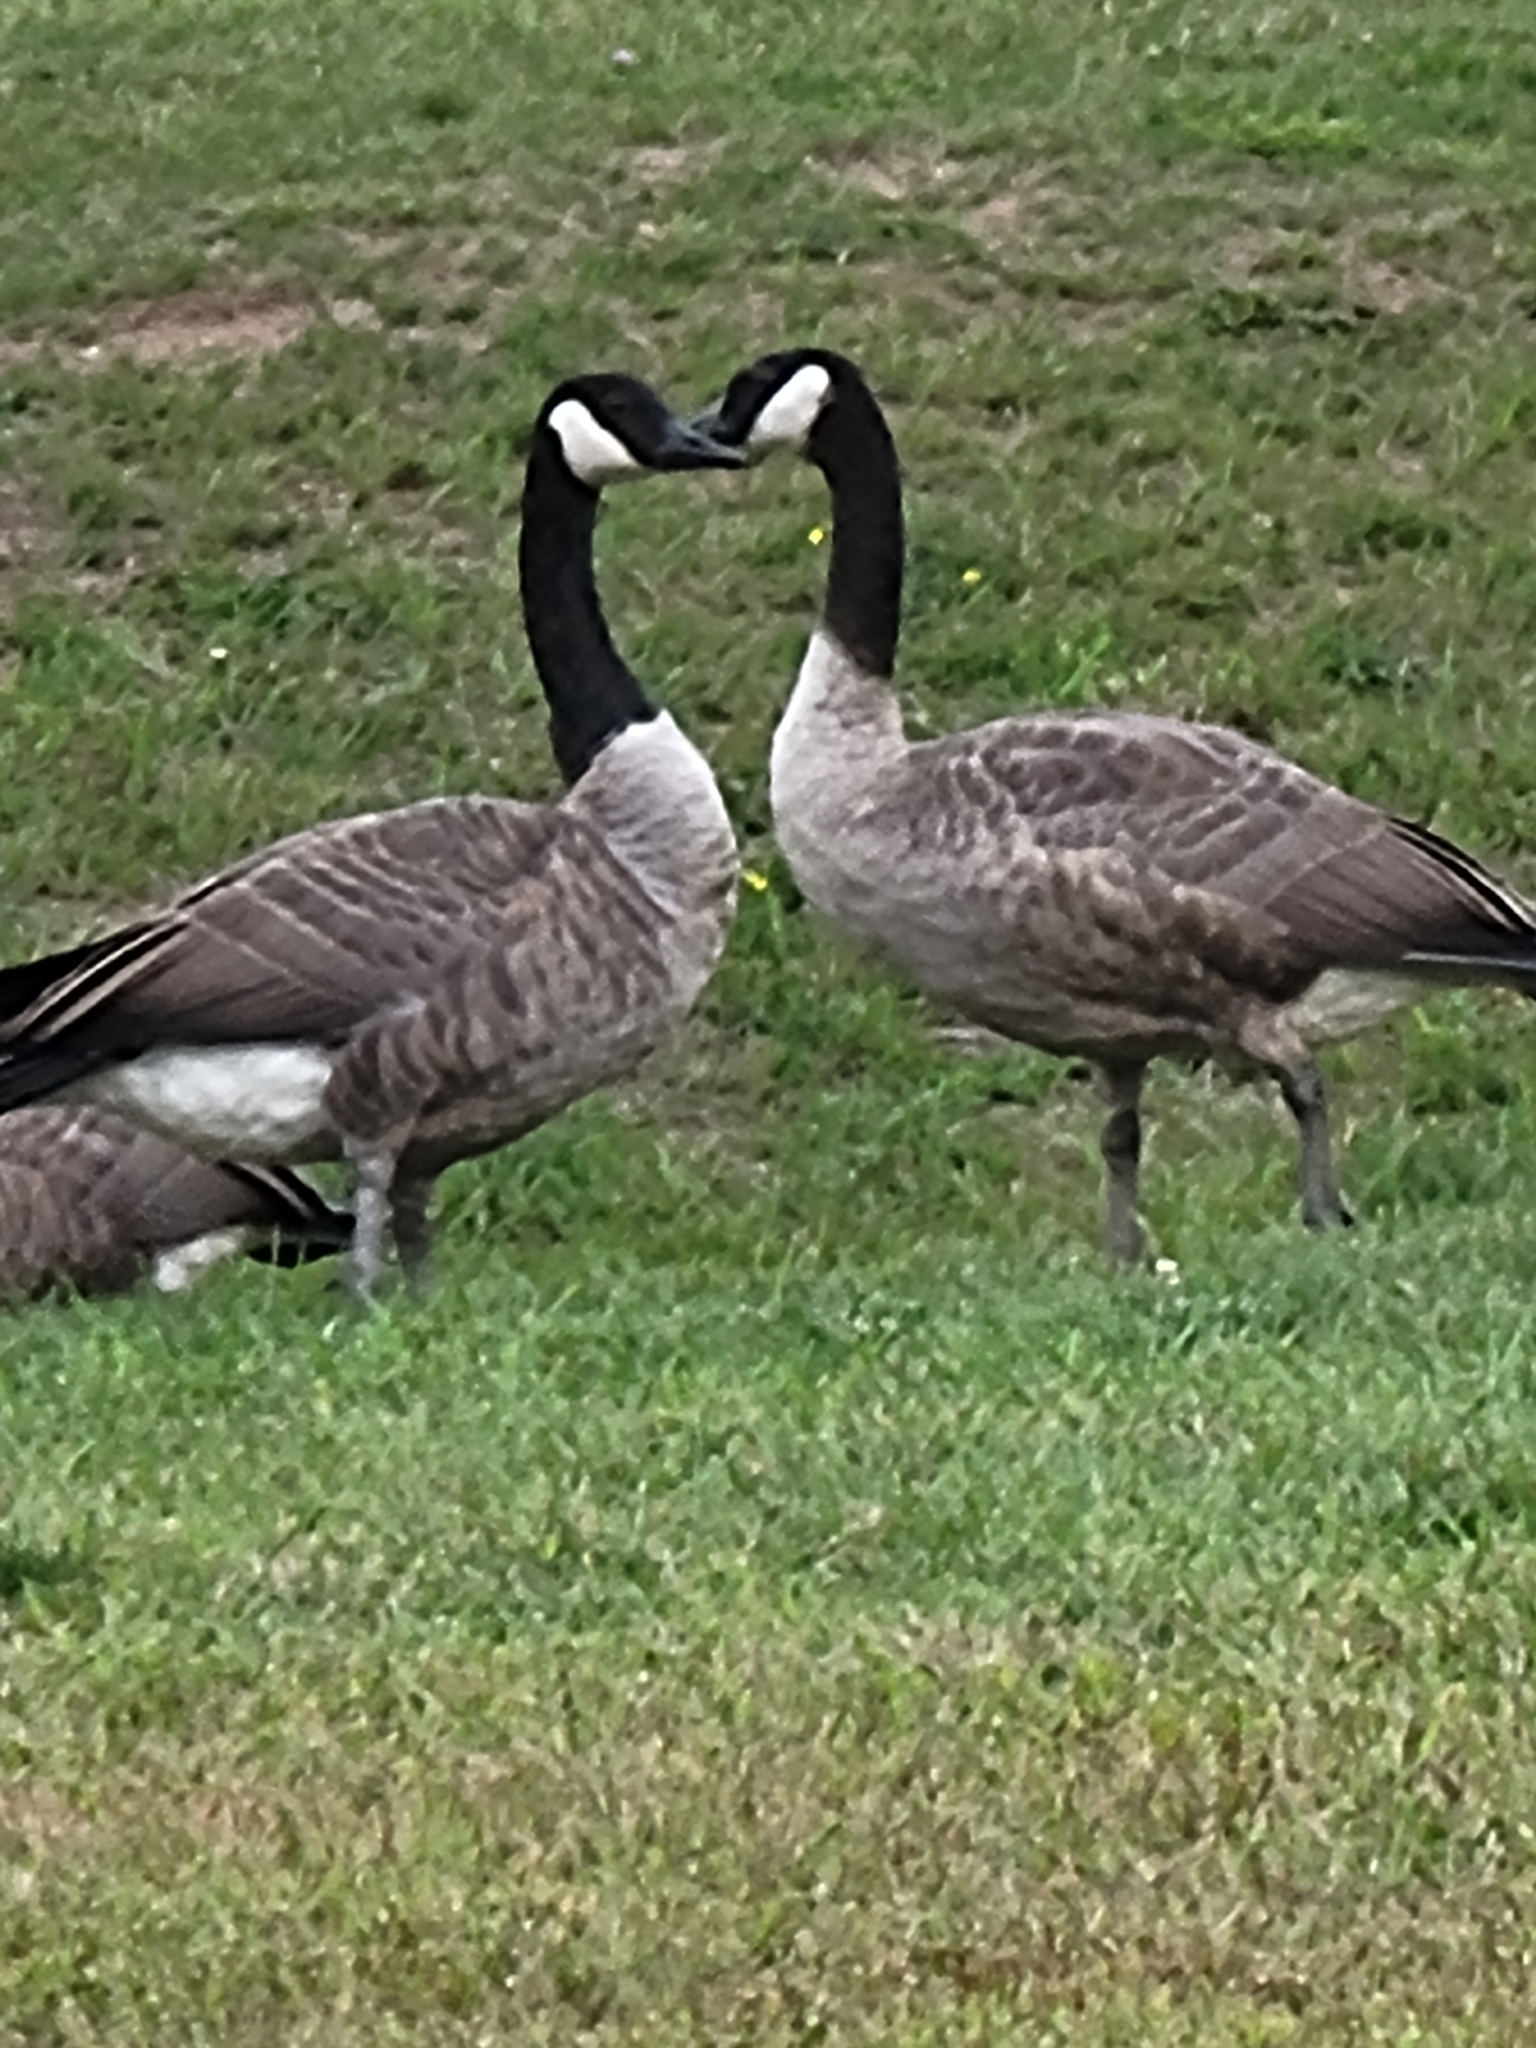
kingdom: Animalia
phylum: Chordata
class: Aves
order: Anseriformes
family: Anatidae
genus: Branta
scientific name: Branta canadensis
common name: Canada goose
